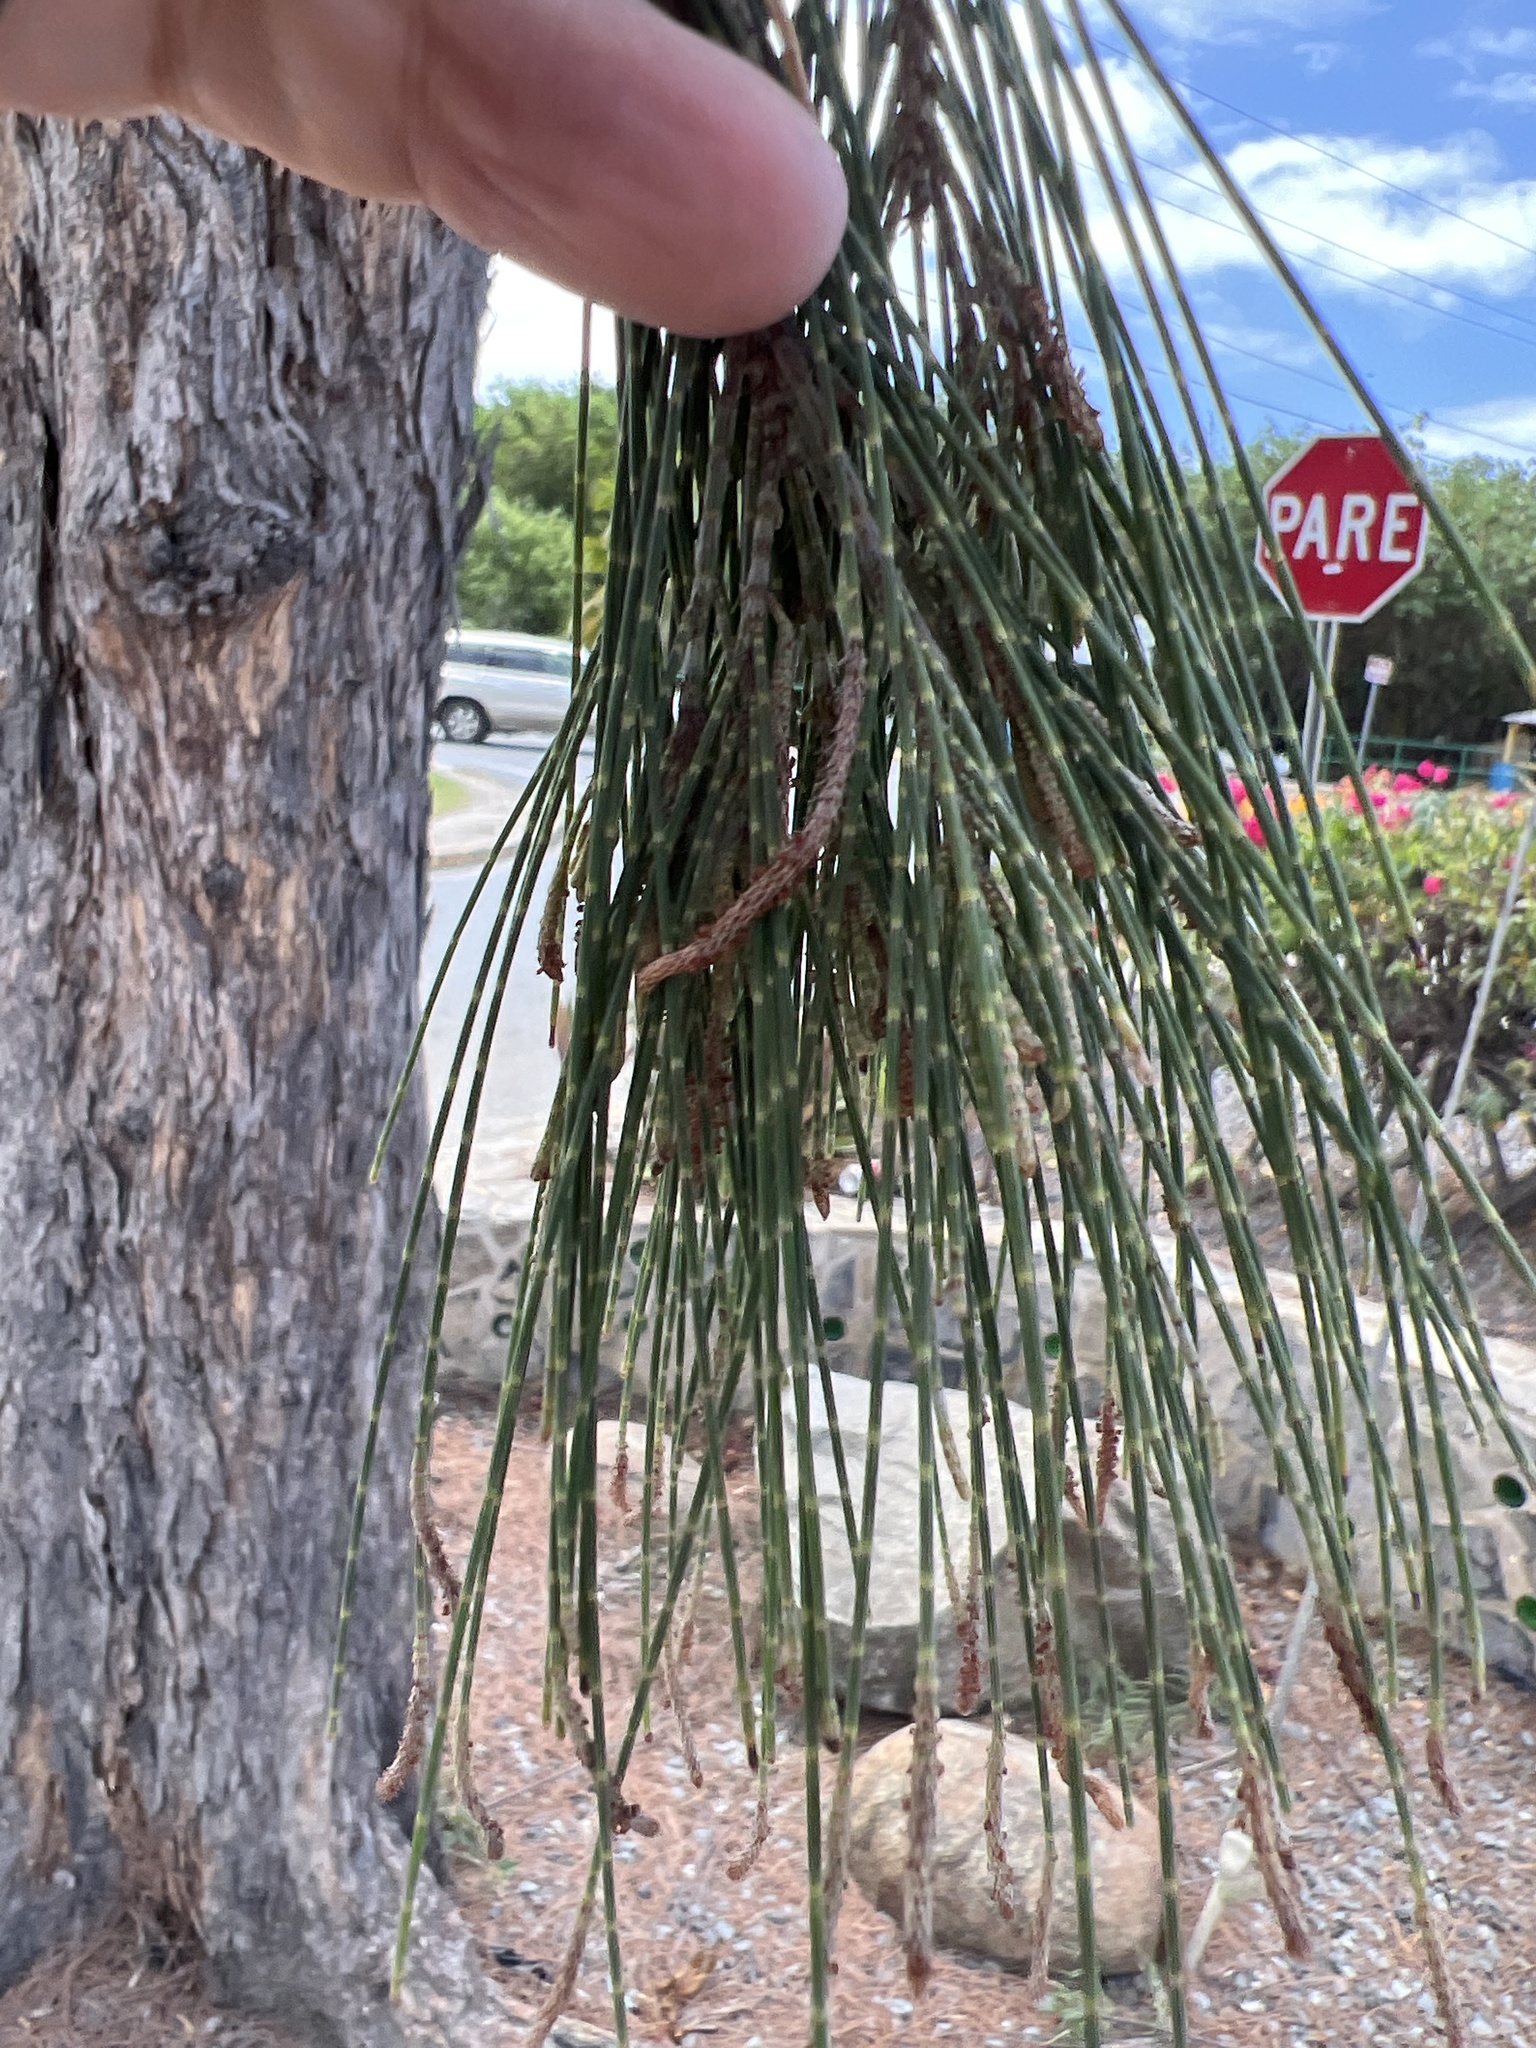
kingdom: Plantae
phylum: Tracheophyta
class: Magnoliopsida
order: Fagales
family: Casuarinaceae
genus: Casuarina
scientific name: Casuarina equisetifolia
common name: Beach sheoak
